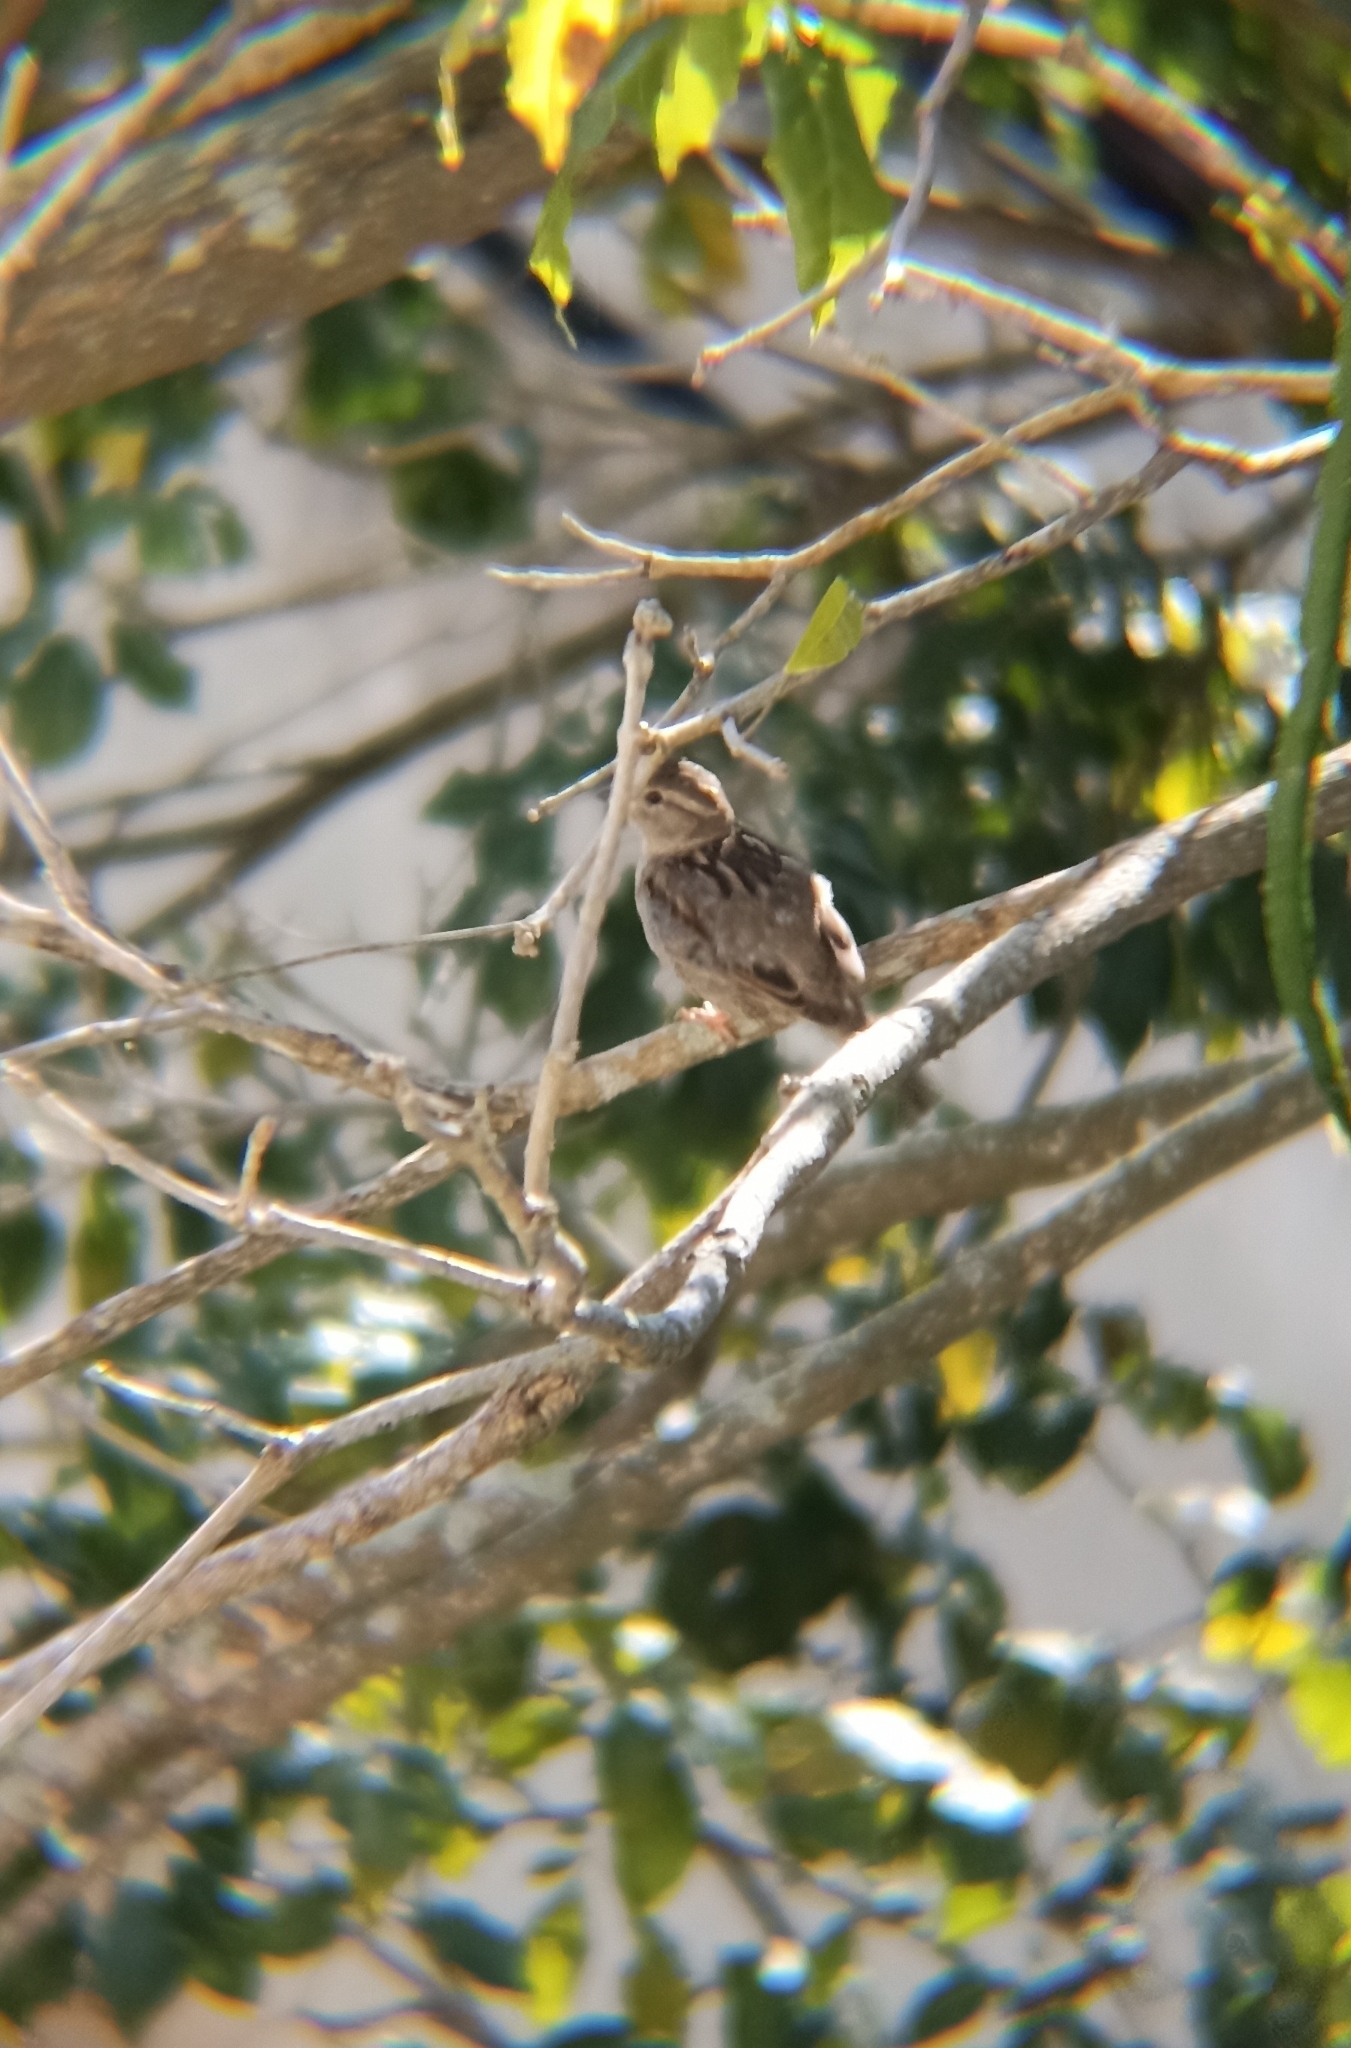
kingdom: Animalia
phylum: Chordata
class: Aves
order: Passeriformes
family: Passeridae
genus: Passer
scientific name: Passer domesticus
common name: House sparrow
